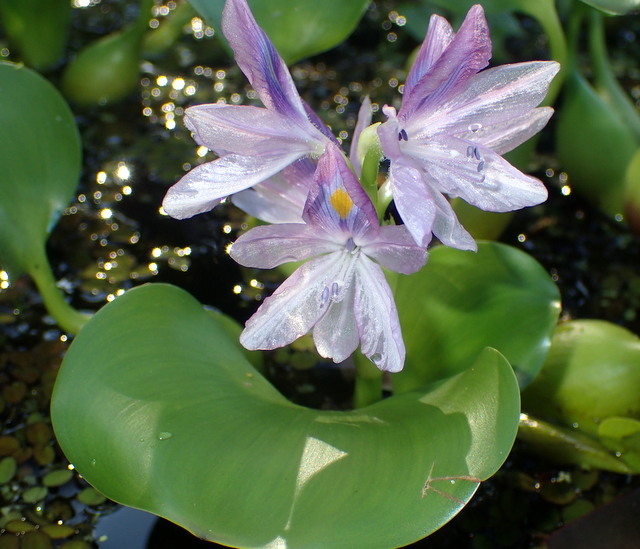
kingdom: Plantae
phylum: Tracheophyta
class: Liliopsida
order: Commelinales
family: Pontederiaceae
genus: Pontederia
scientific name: Pontederia crassipes
